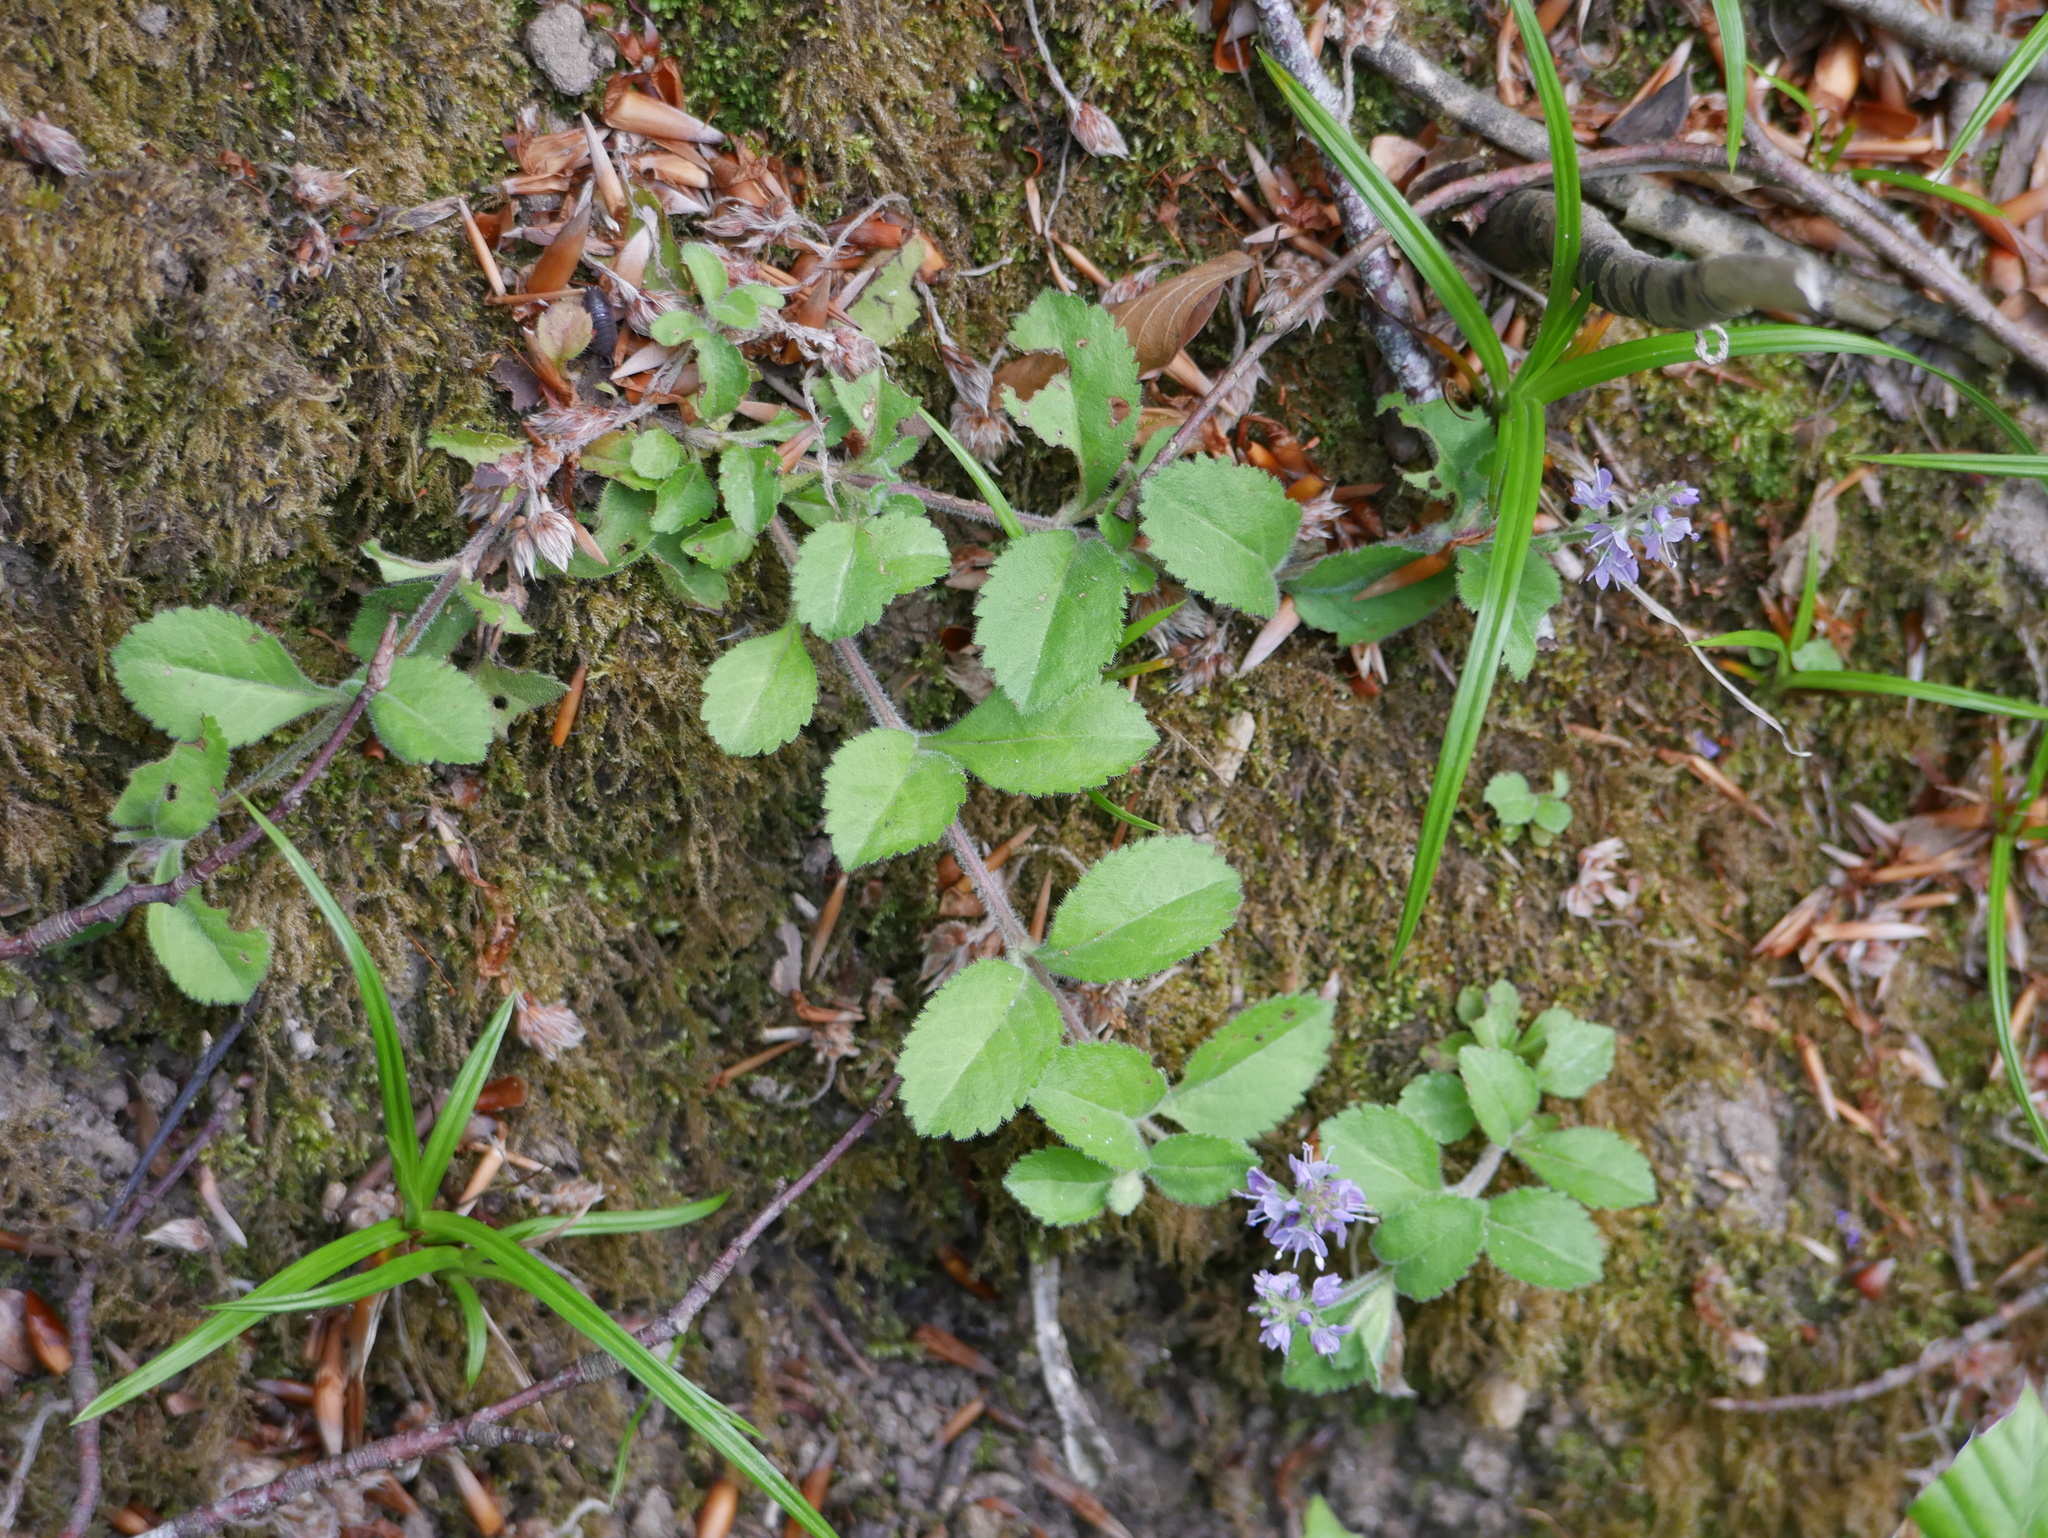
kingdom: Plantae
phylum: Tracheophyta
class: Magnoliopsida
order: Lamiales
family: Plantaginaceae
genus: Veronica
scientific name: Veronica officinalis
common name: Common speedwell
